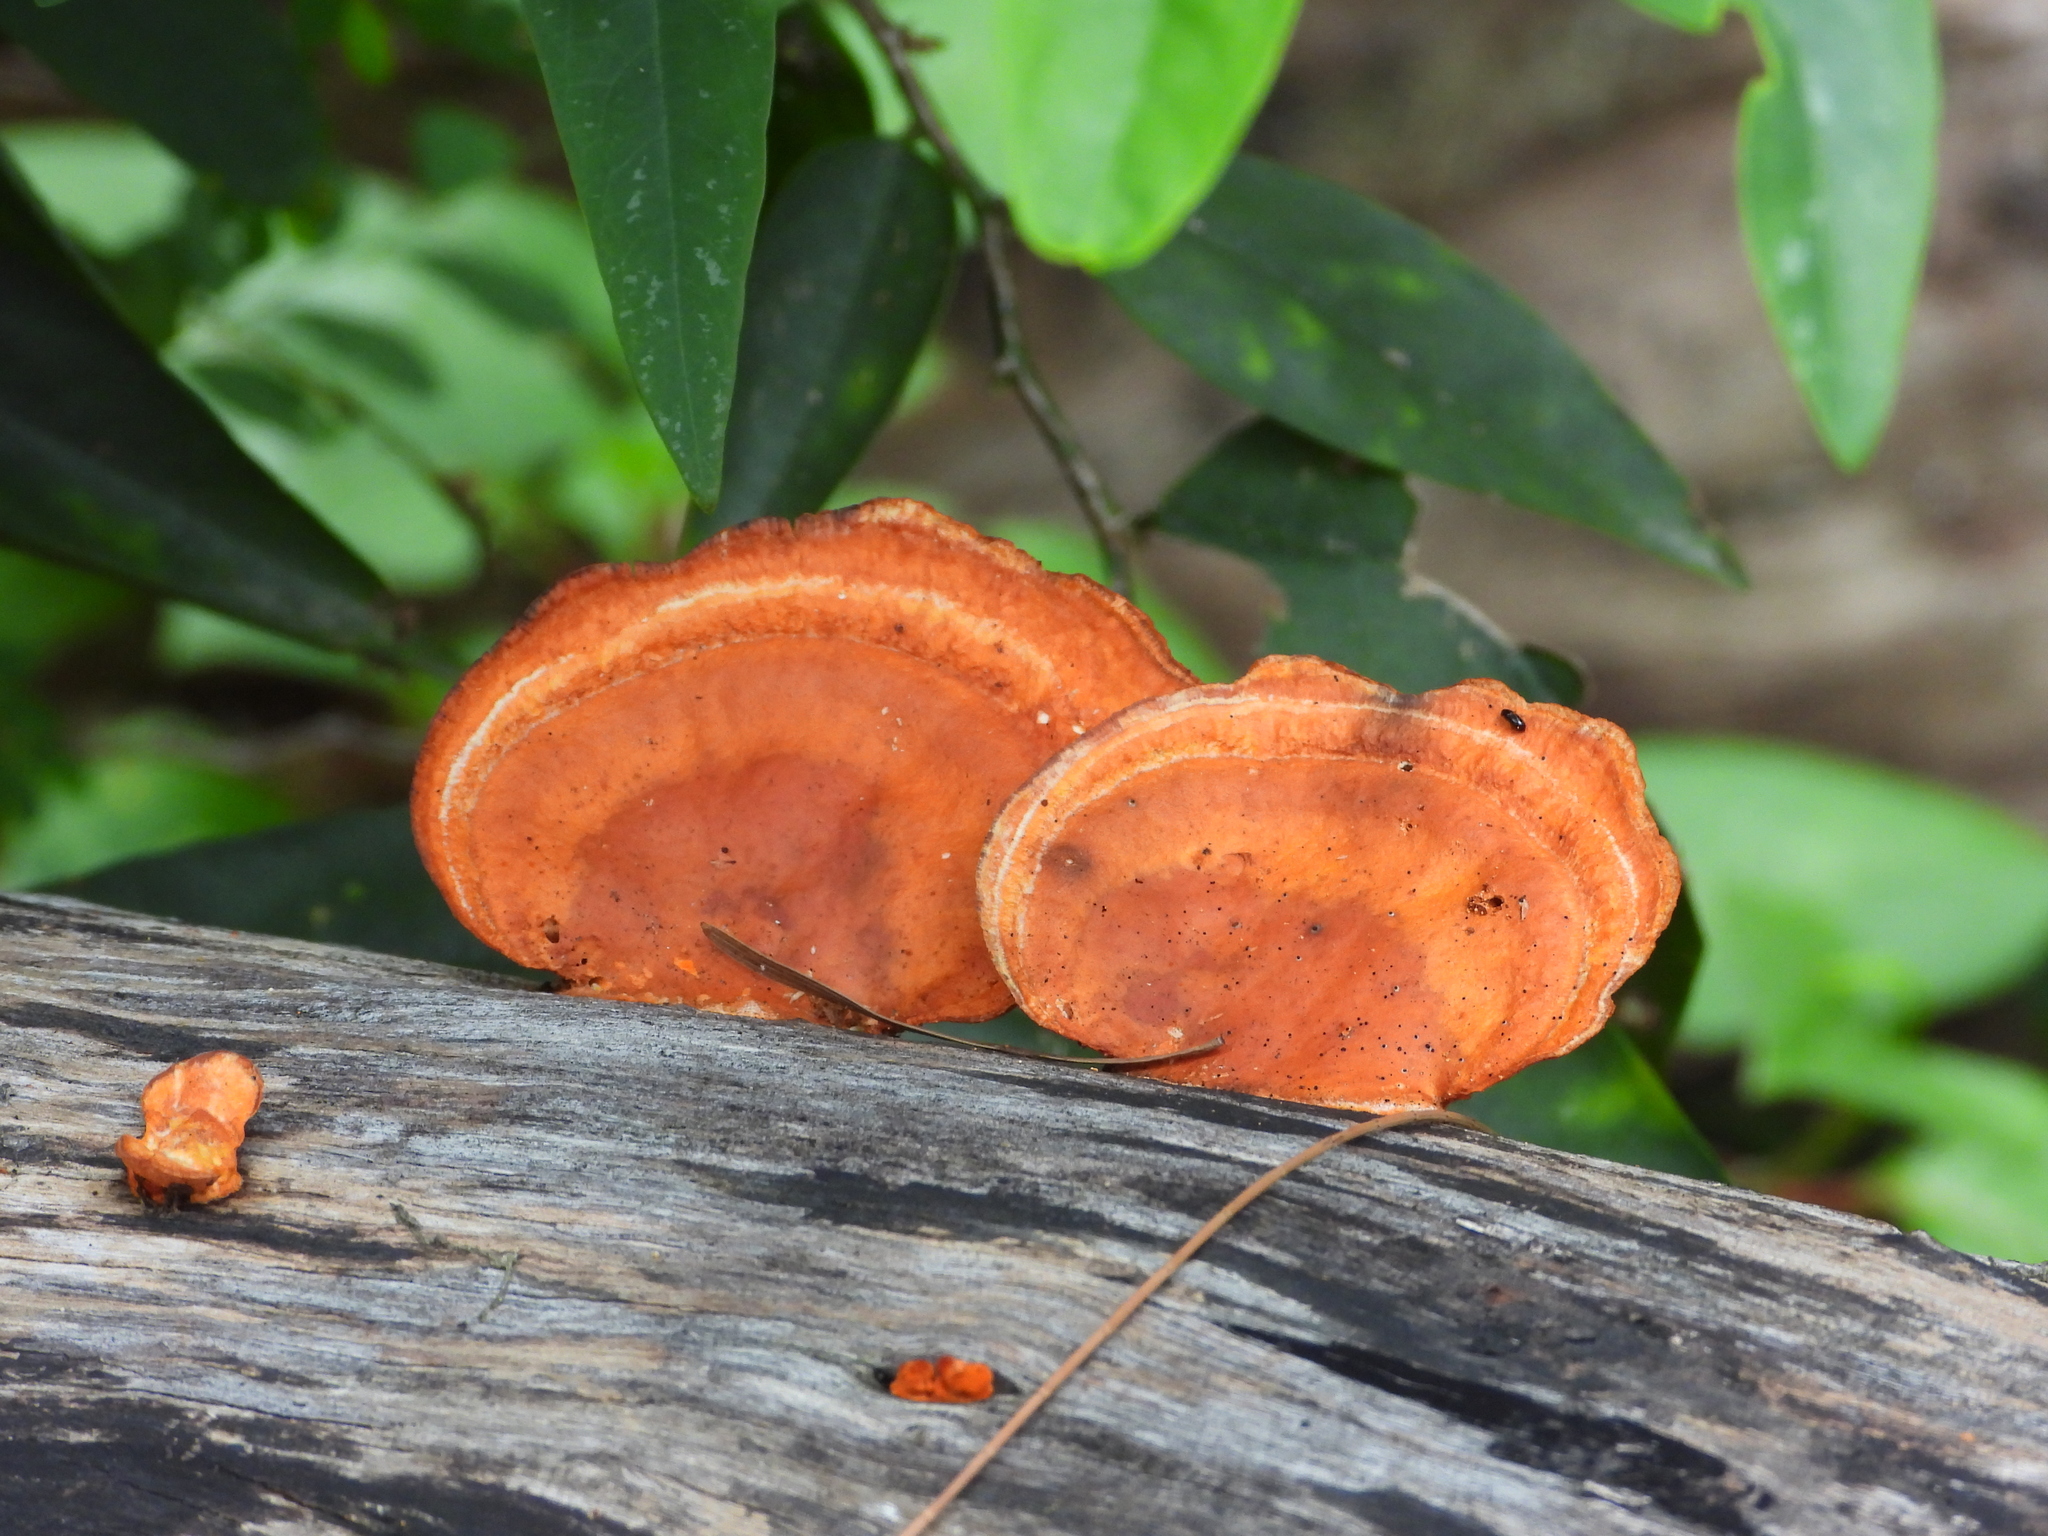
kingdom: Fungi
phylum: Basidiomycota
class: Agaricomycetes
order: Polyporales
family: Polyporaceae
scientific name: Polyporaceae
